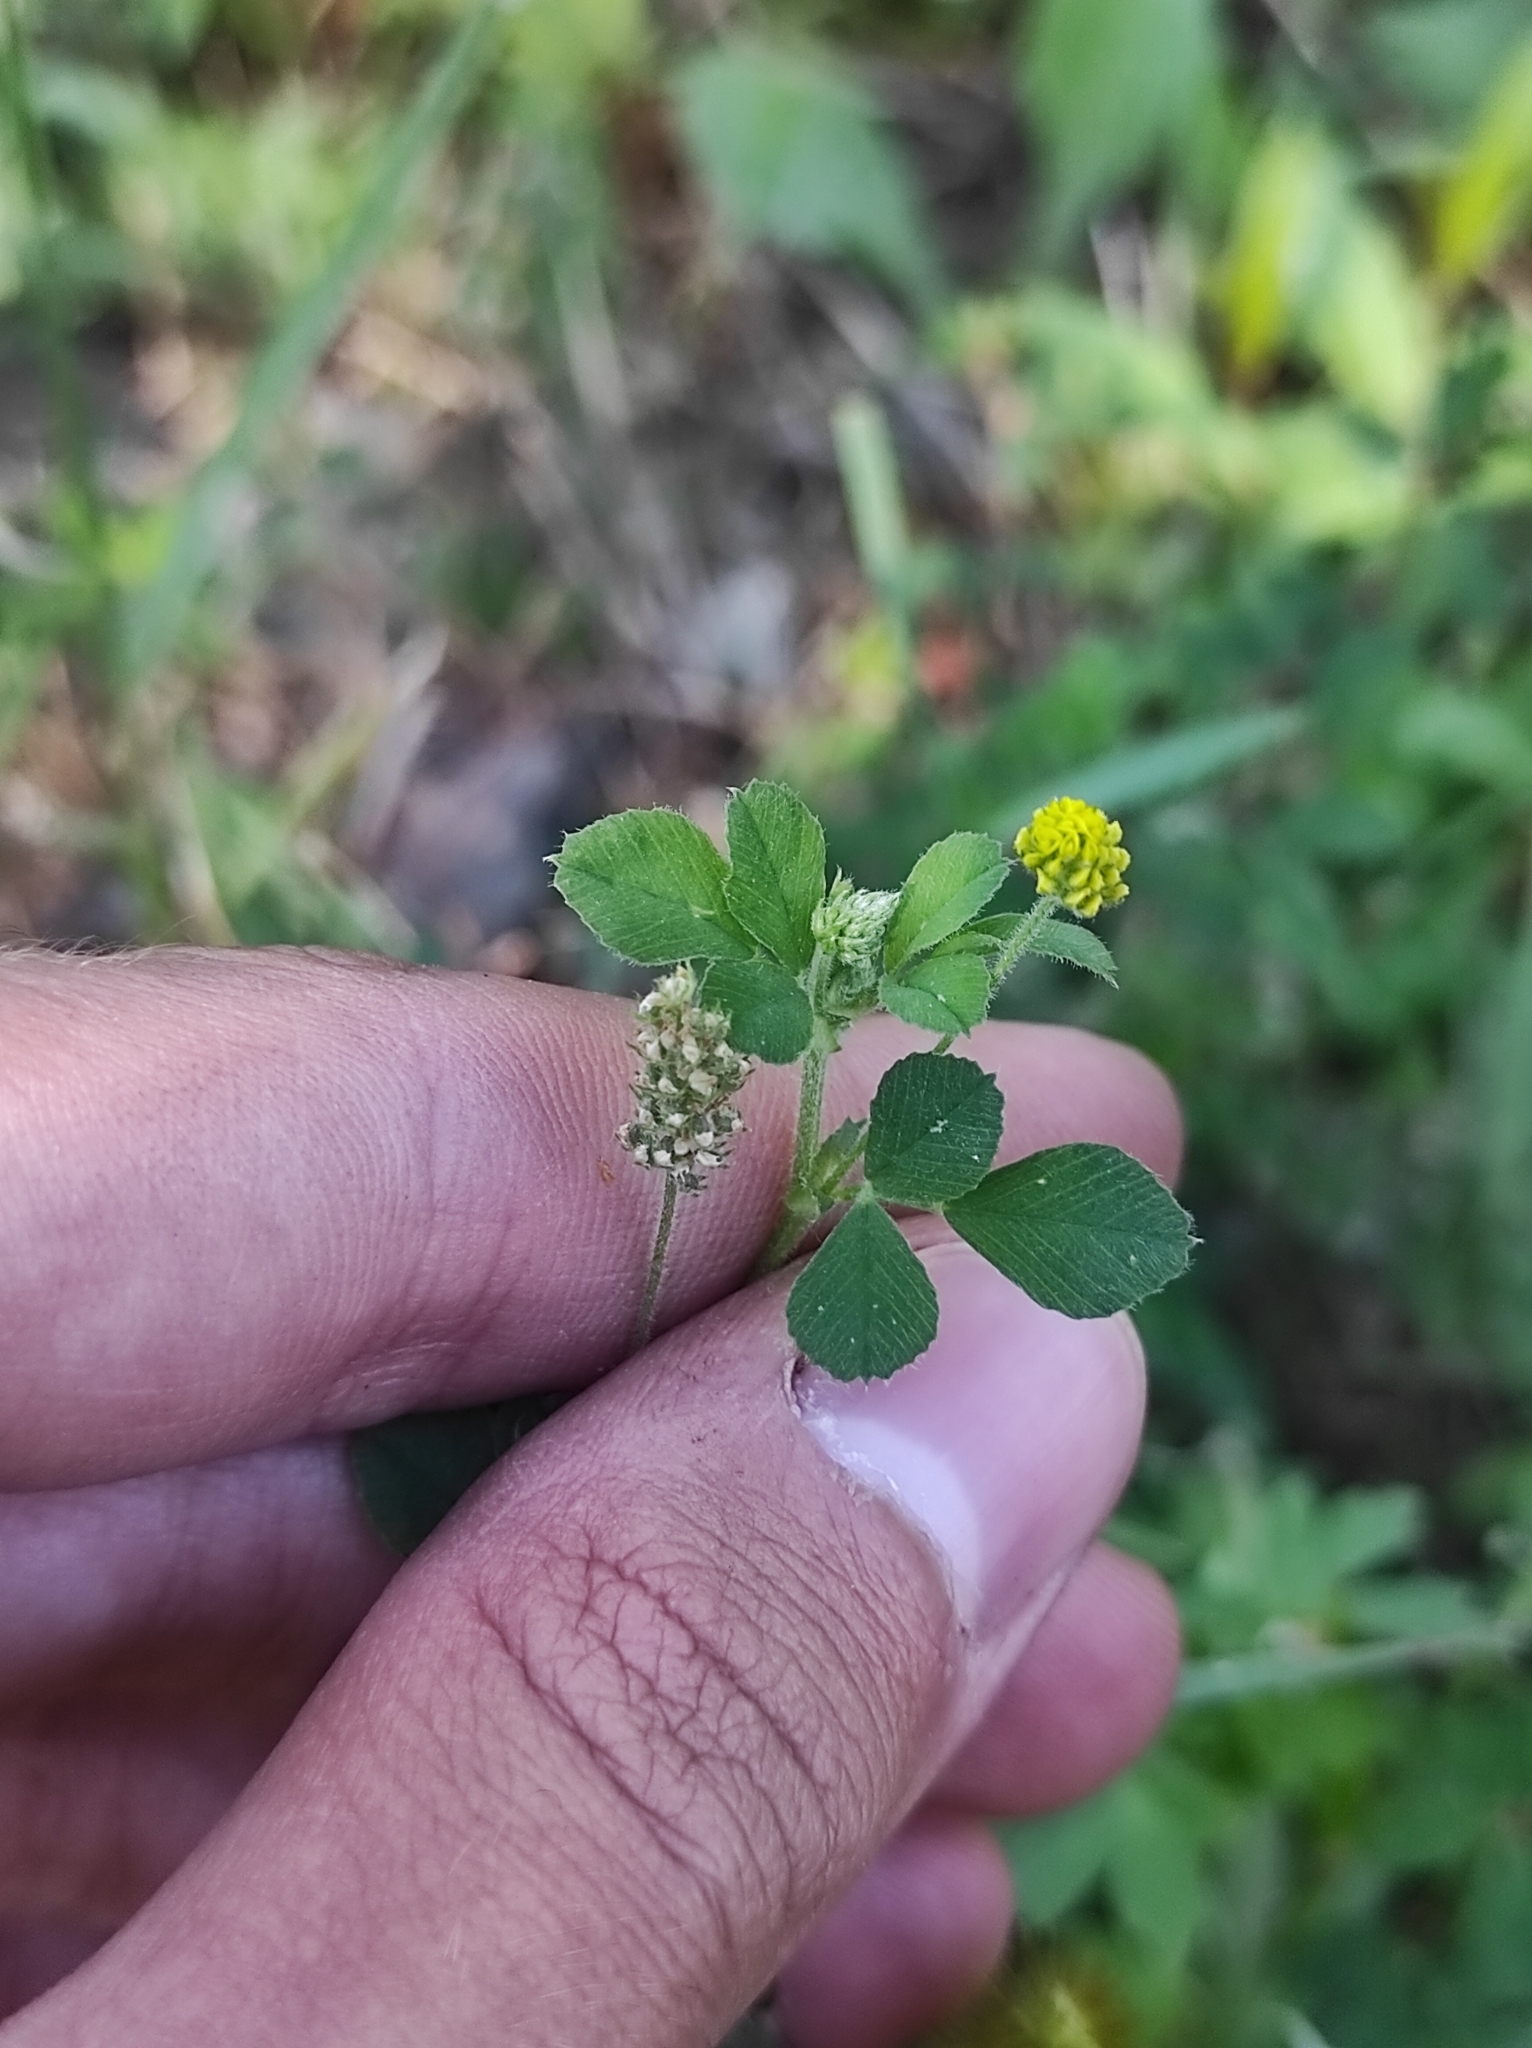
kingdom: Plantae
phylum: Tracheophyta
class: Magnoliopsida
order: Fabales
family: Fabaceae
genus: Medicago
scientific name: Medicago lupulina
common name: Black medick
